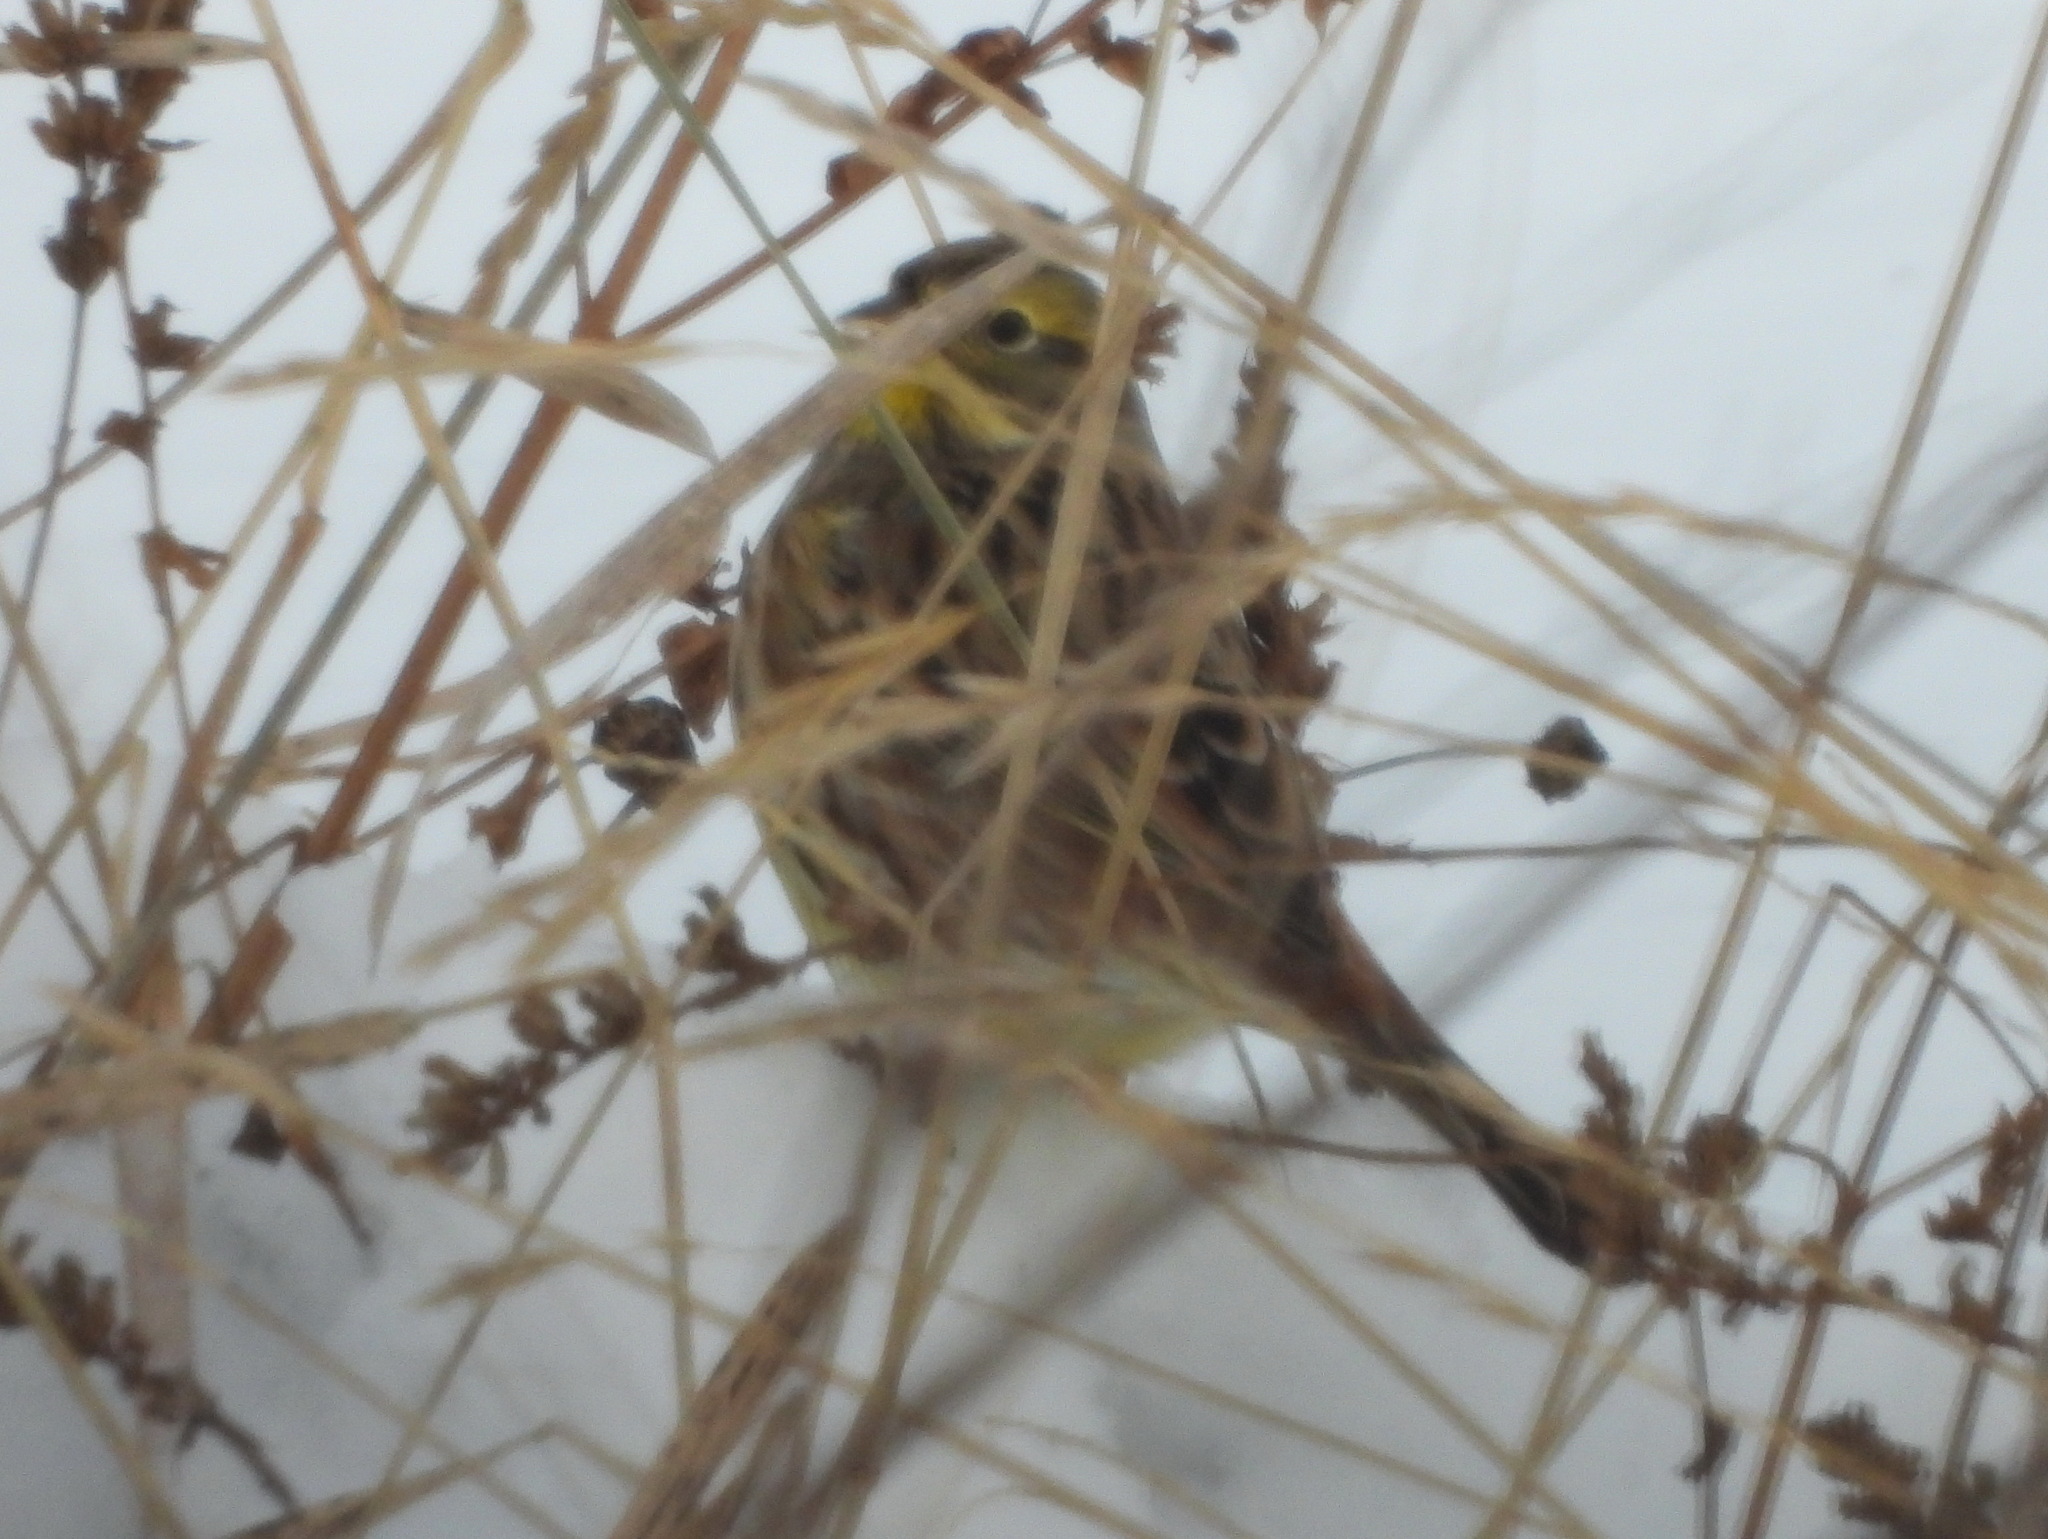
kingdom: Animalia
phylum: Chordata
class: Aves
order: Passeriformes
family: Emberizidae
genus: Emberiza
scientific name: Emberiza citrinella
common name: Yellowhammer
